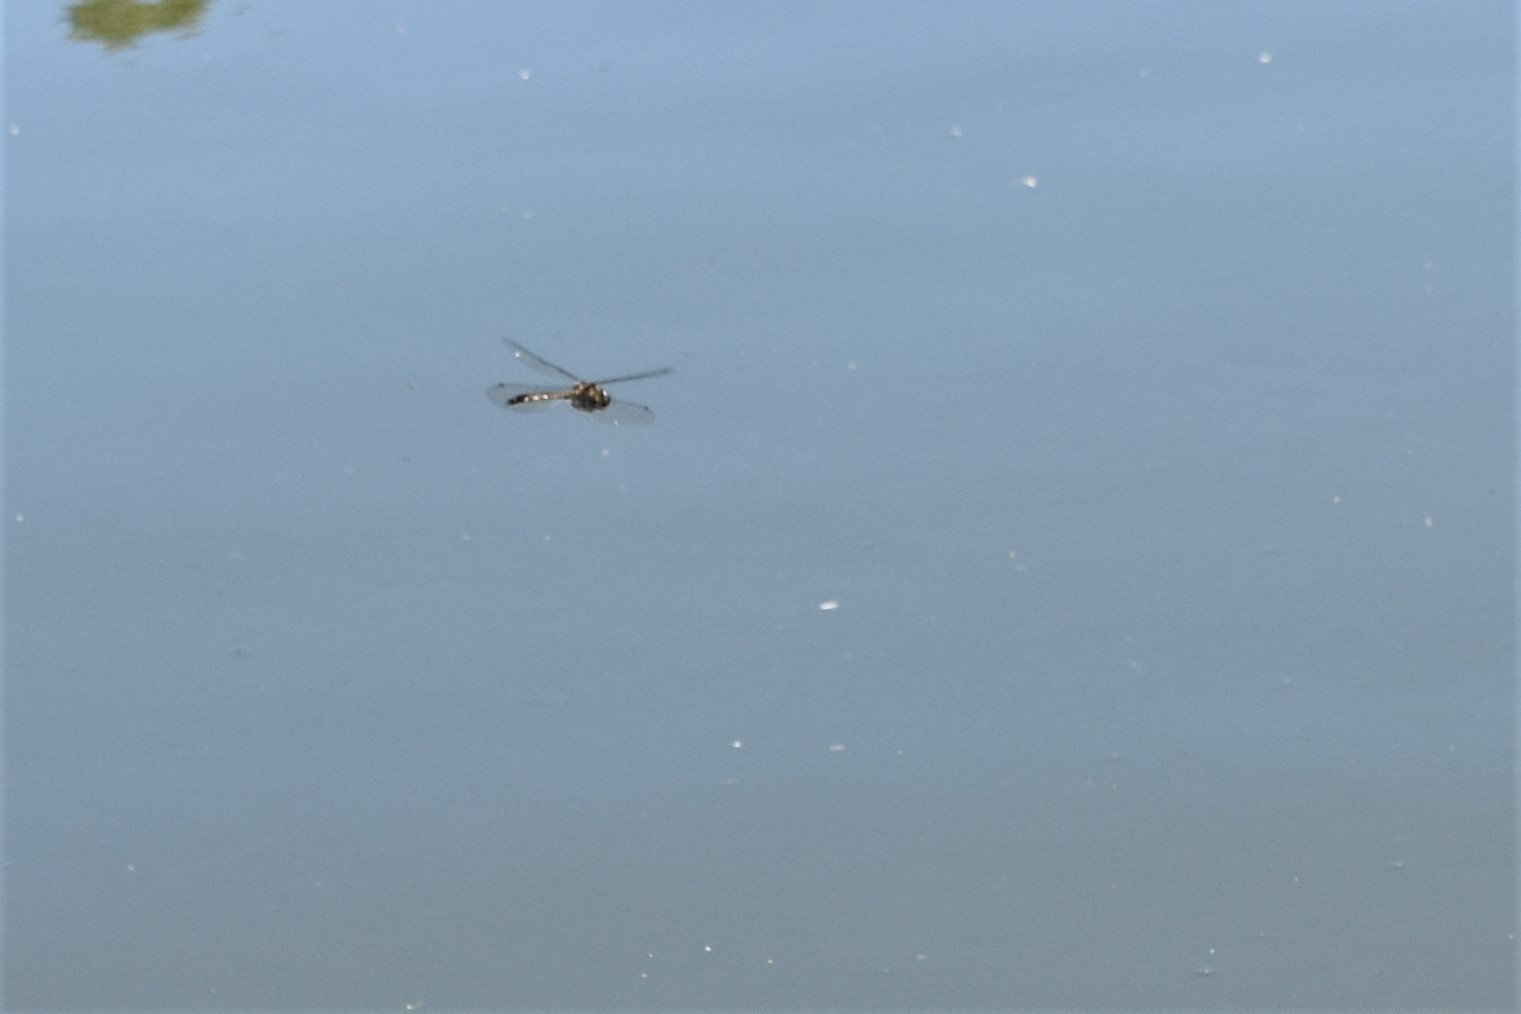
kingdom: Animalia
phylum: Arthropoda
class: Insecta
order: Odonata
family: Corduliidae
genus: Procordulia
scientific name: Procordulia grayi
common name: Yellow spotted dragonfly
